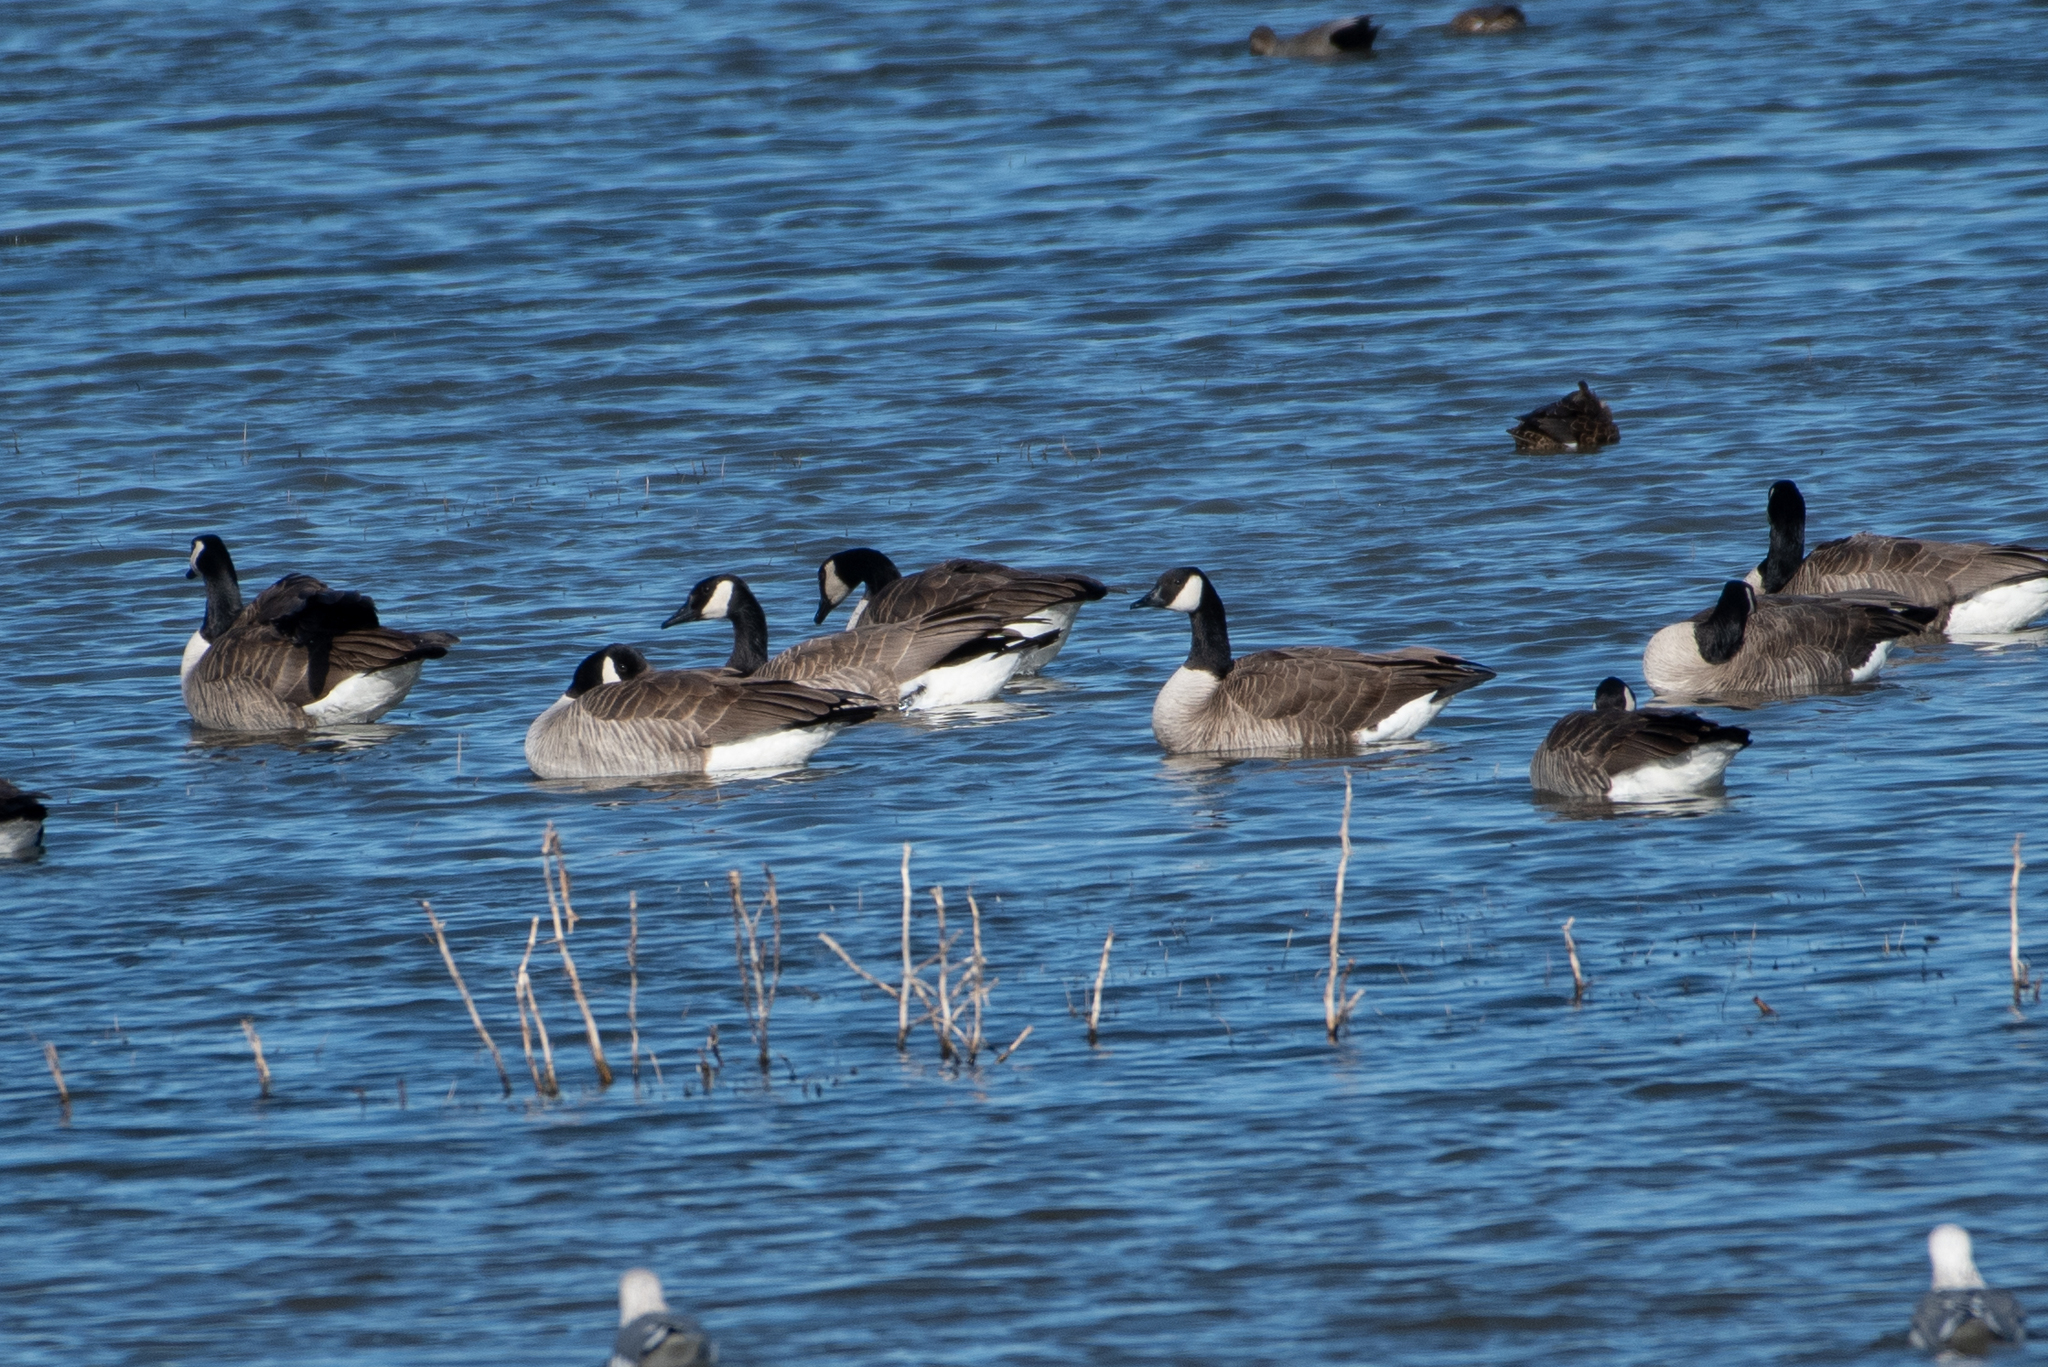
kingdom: Animalia
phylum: Chordata
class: Aves
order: Anseriformes
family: Anatidae
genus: Branta
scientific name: Branta canadensis
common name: Canada goose
